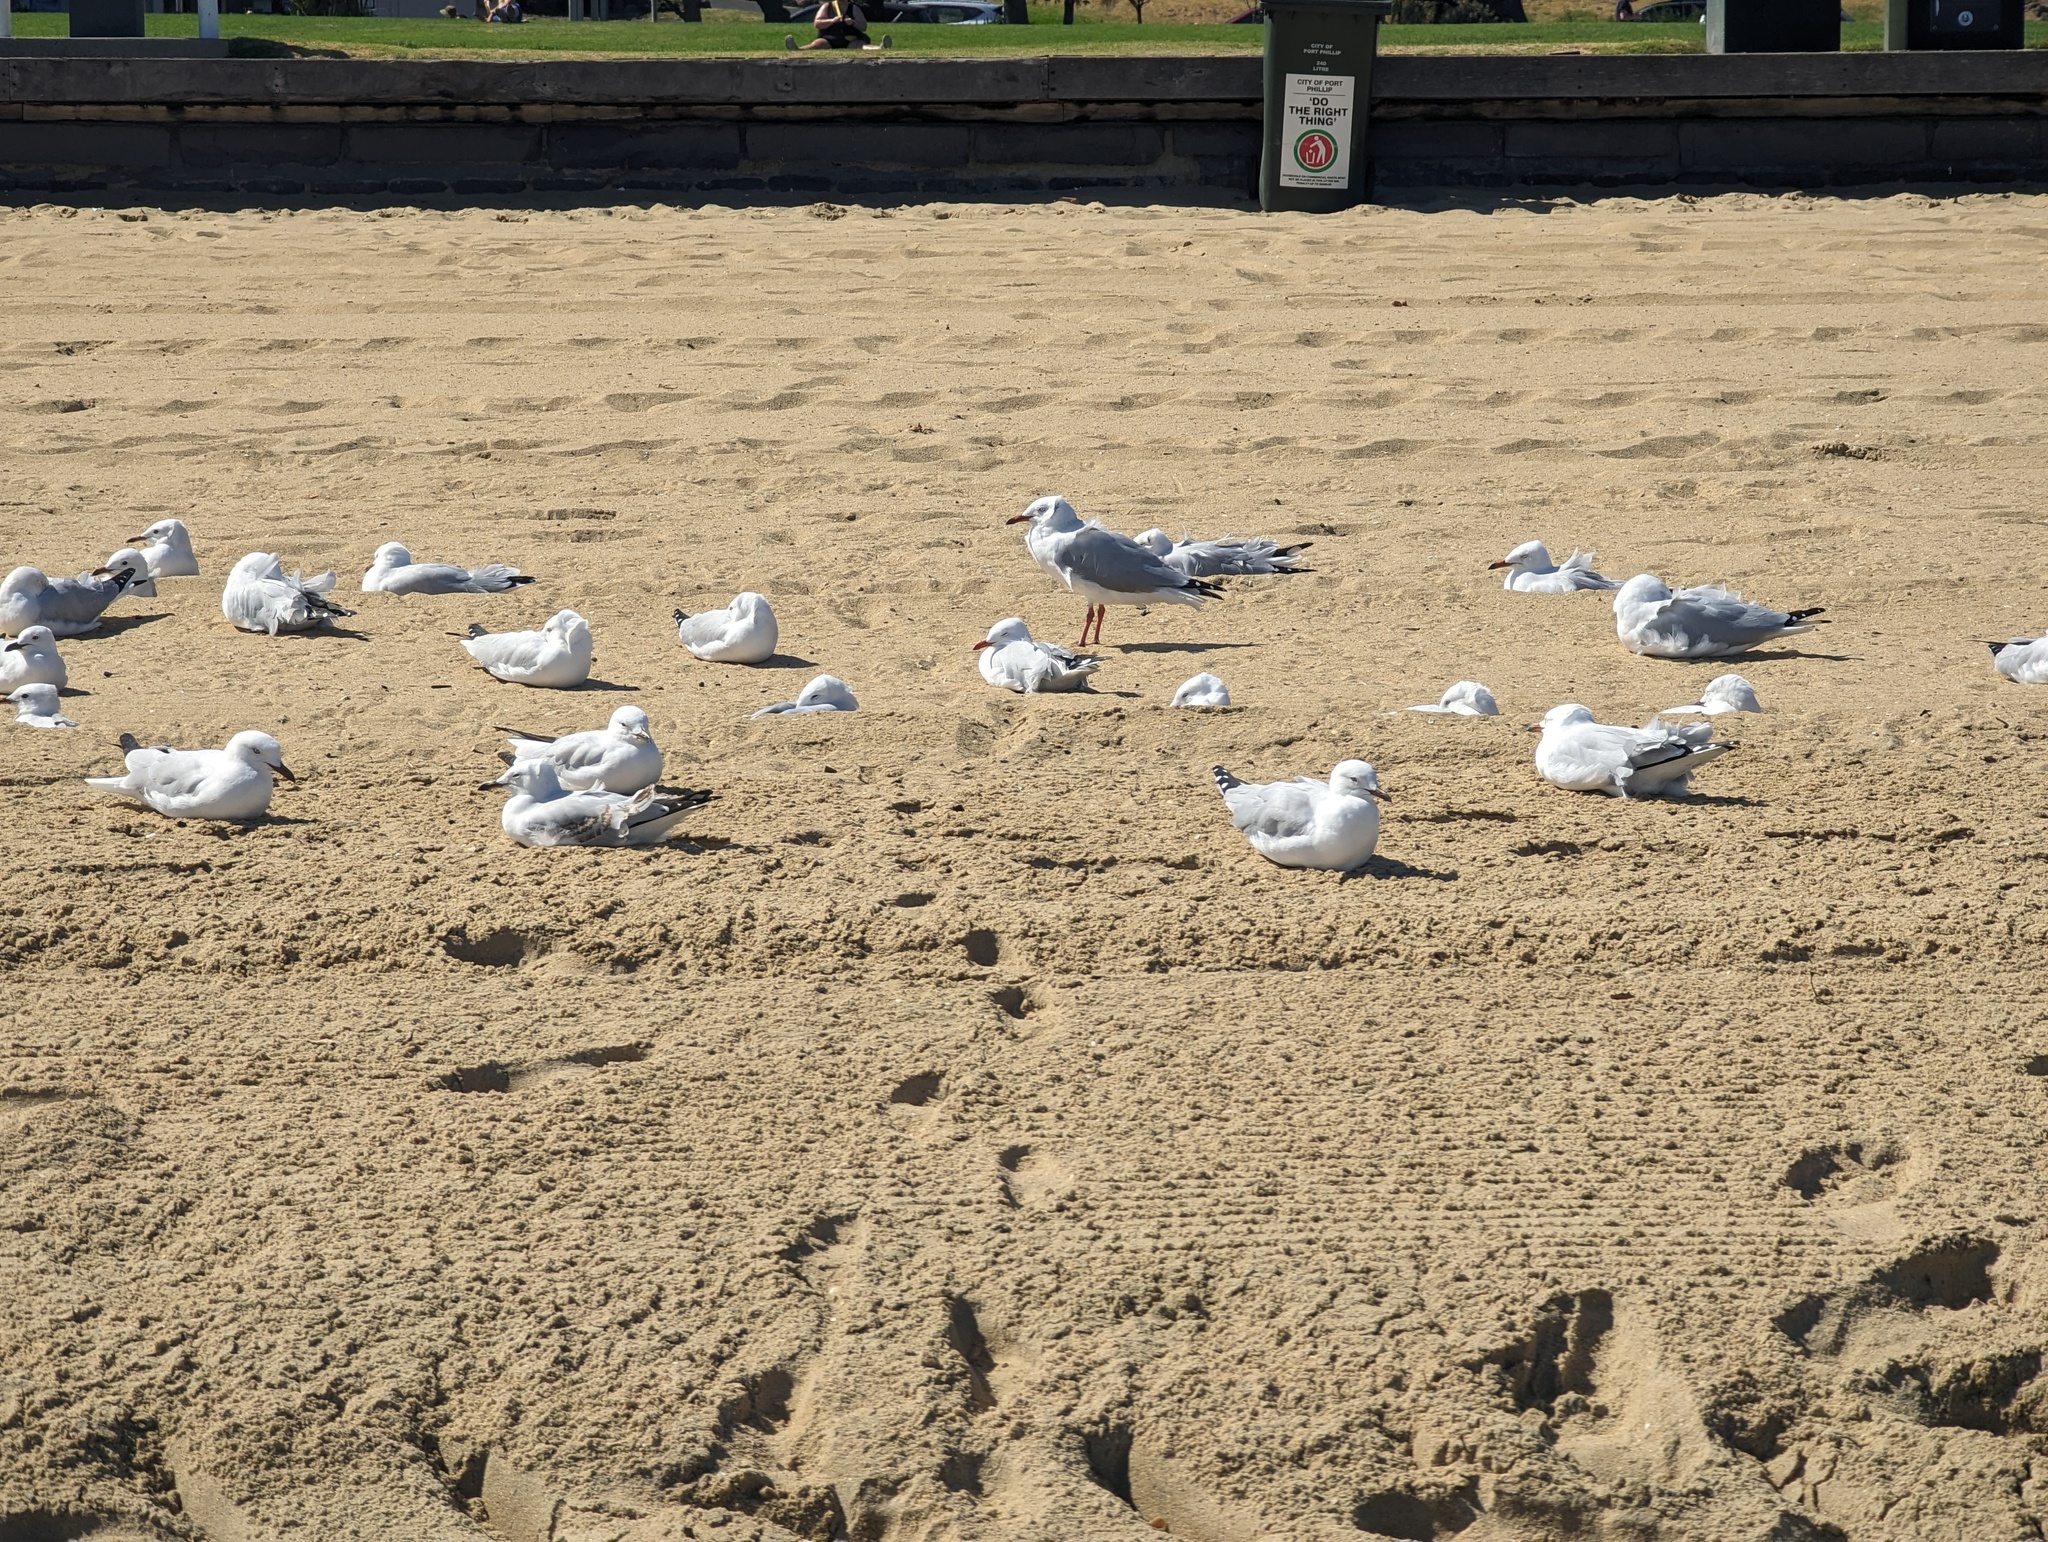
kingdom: Animalia
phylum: Chordata
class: Aves
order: Charadriiformes
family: Laridae
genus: Chroicocephalus
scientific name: Chroicocephalus novaehollandiae
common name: Silver gull
